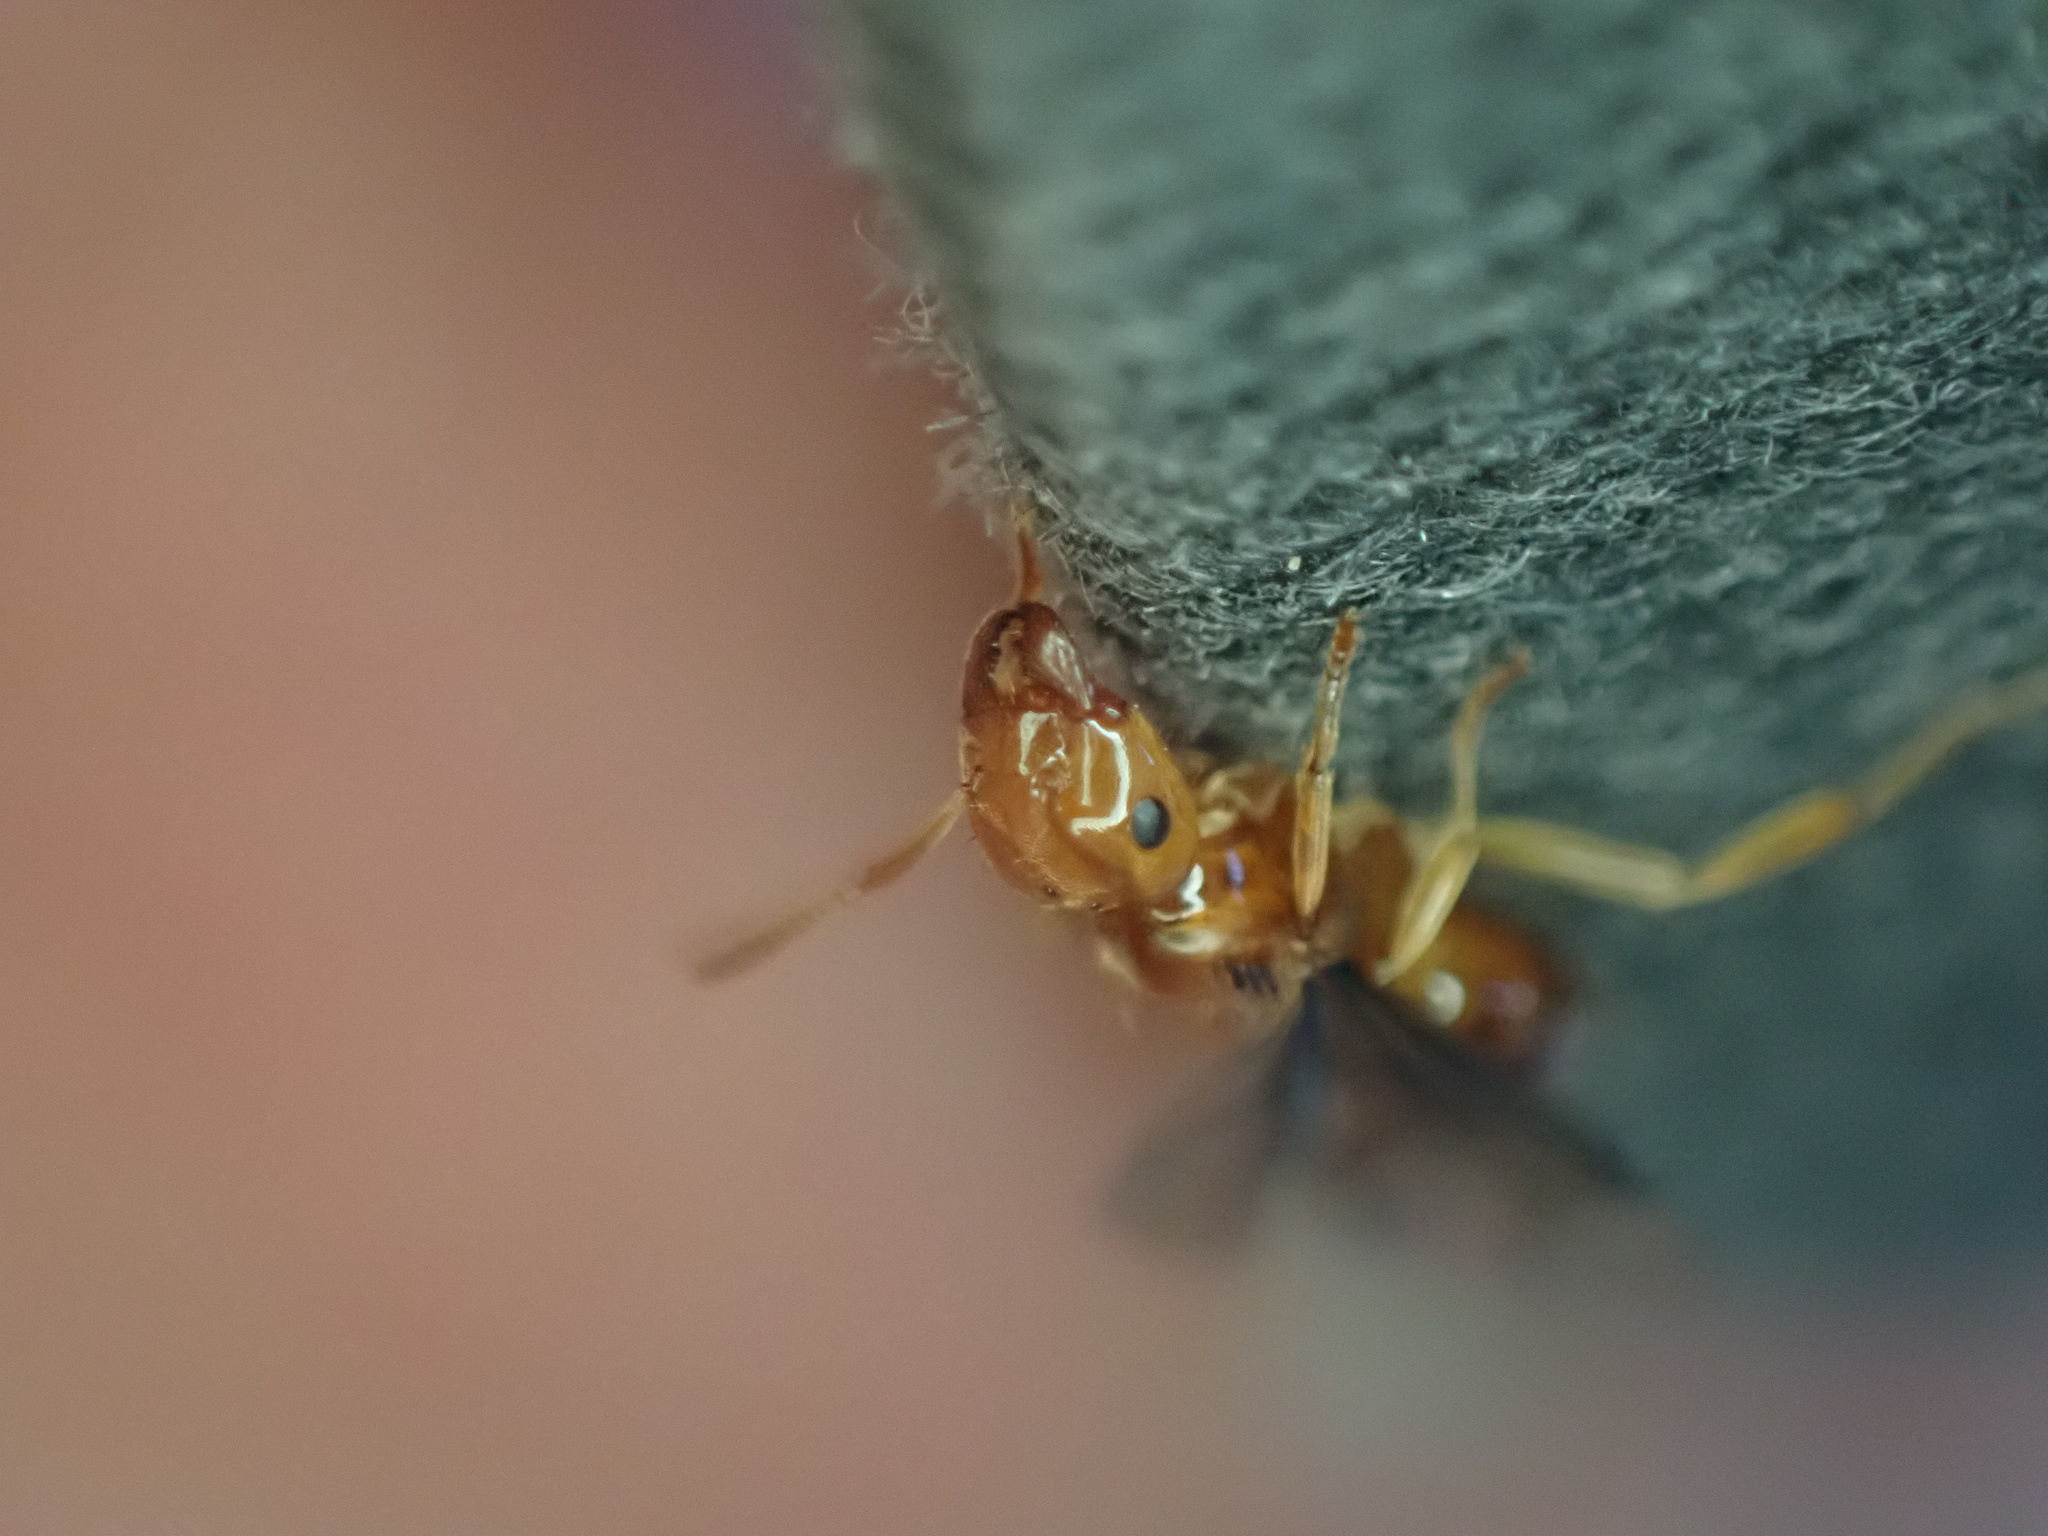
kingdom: Animalia
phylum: Arthropoda
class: Insecta
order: Hymenoptera
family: Formicidae
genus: Acanthomyops
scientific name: Acanthomyops interjectus
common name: Larger yellow ant
